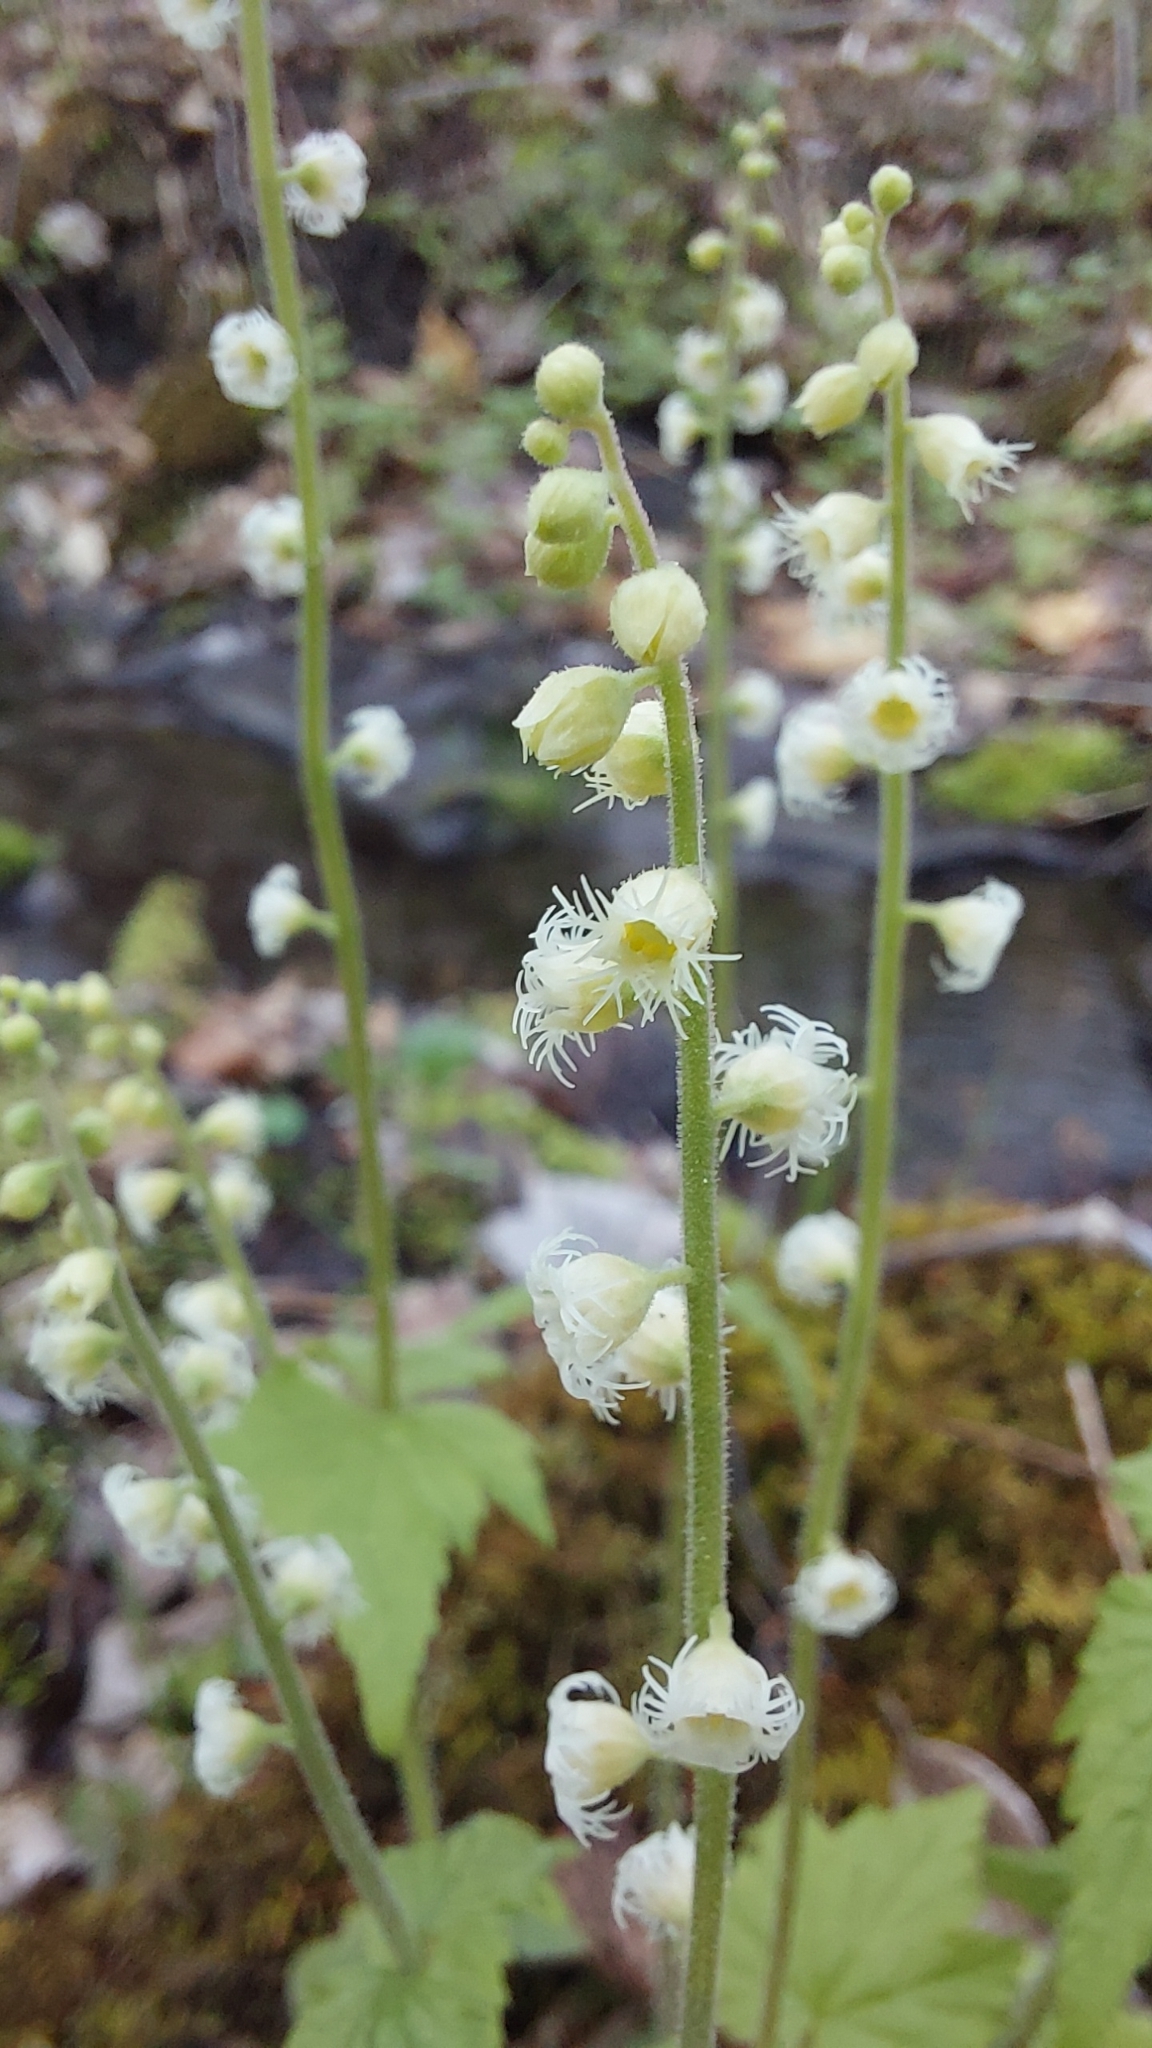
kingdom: Plantae
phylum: Tracheophyta
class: Magnoliopsida
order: Saxifragales
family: Saxifragaceae
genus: Mitella
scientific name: Mitella diphylla
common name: Coolwort
